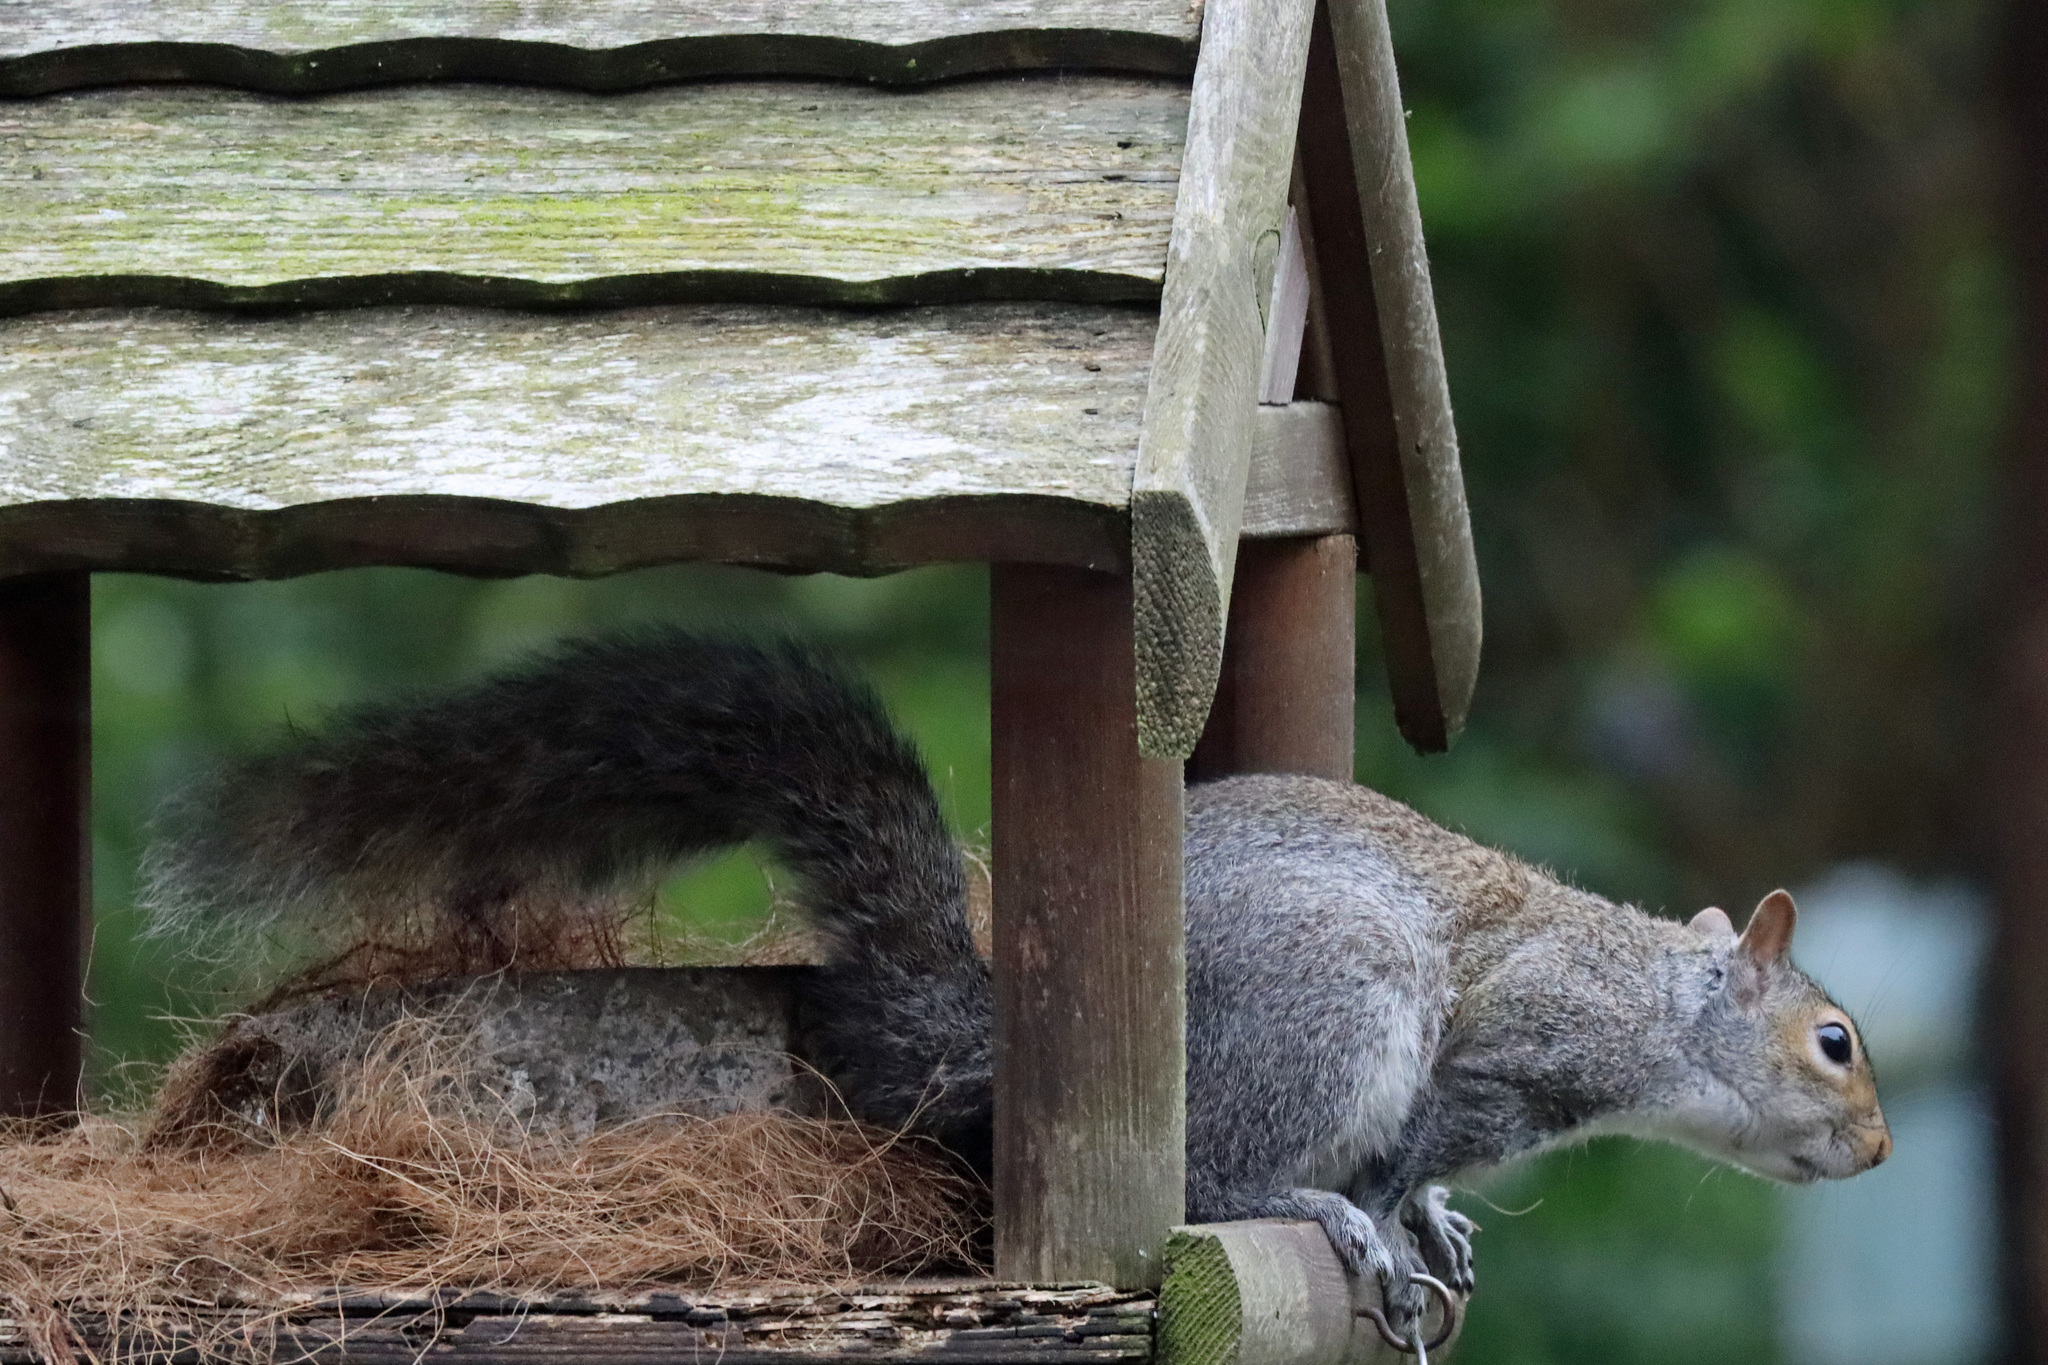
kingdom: Animalia
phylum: Chordata
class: Mammalia
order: Rodentia
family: Sciuridae
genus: Sciurus
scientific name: Sciurus carolinensis
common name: Eastern gray squirrel
